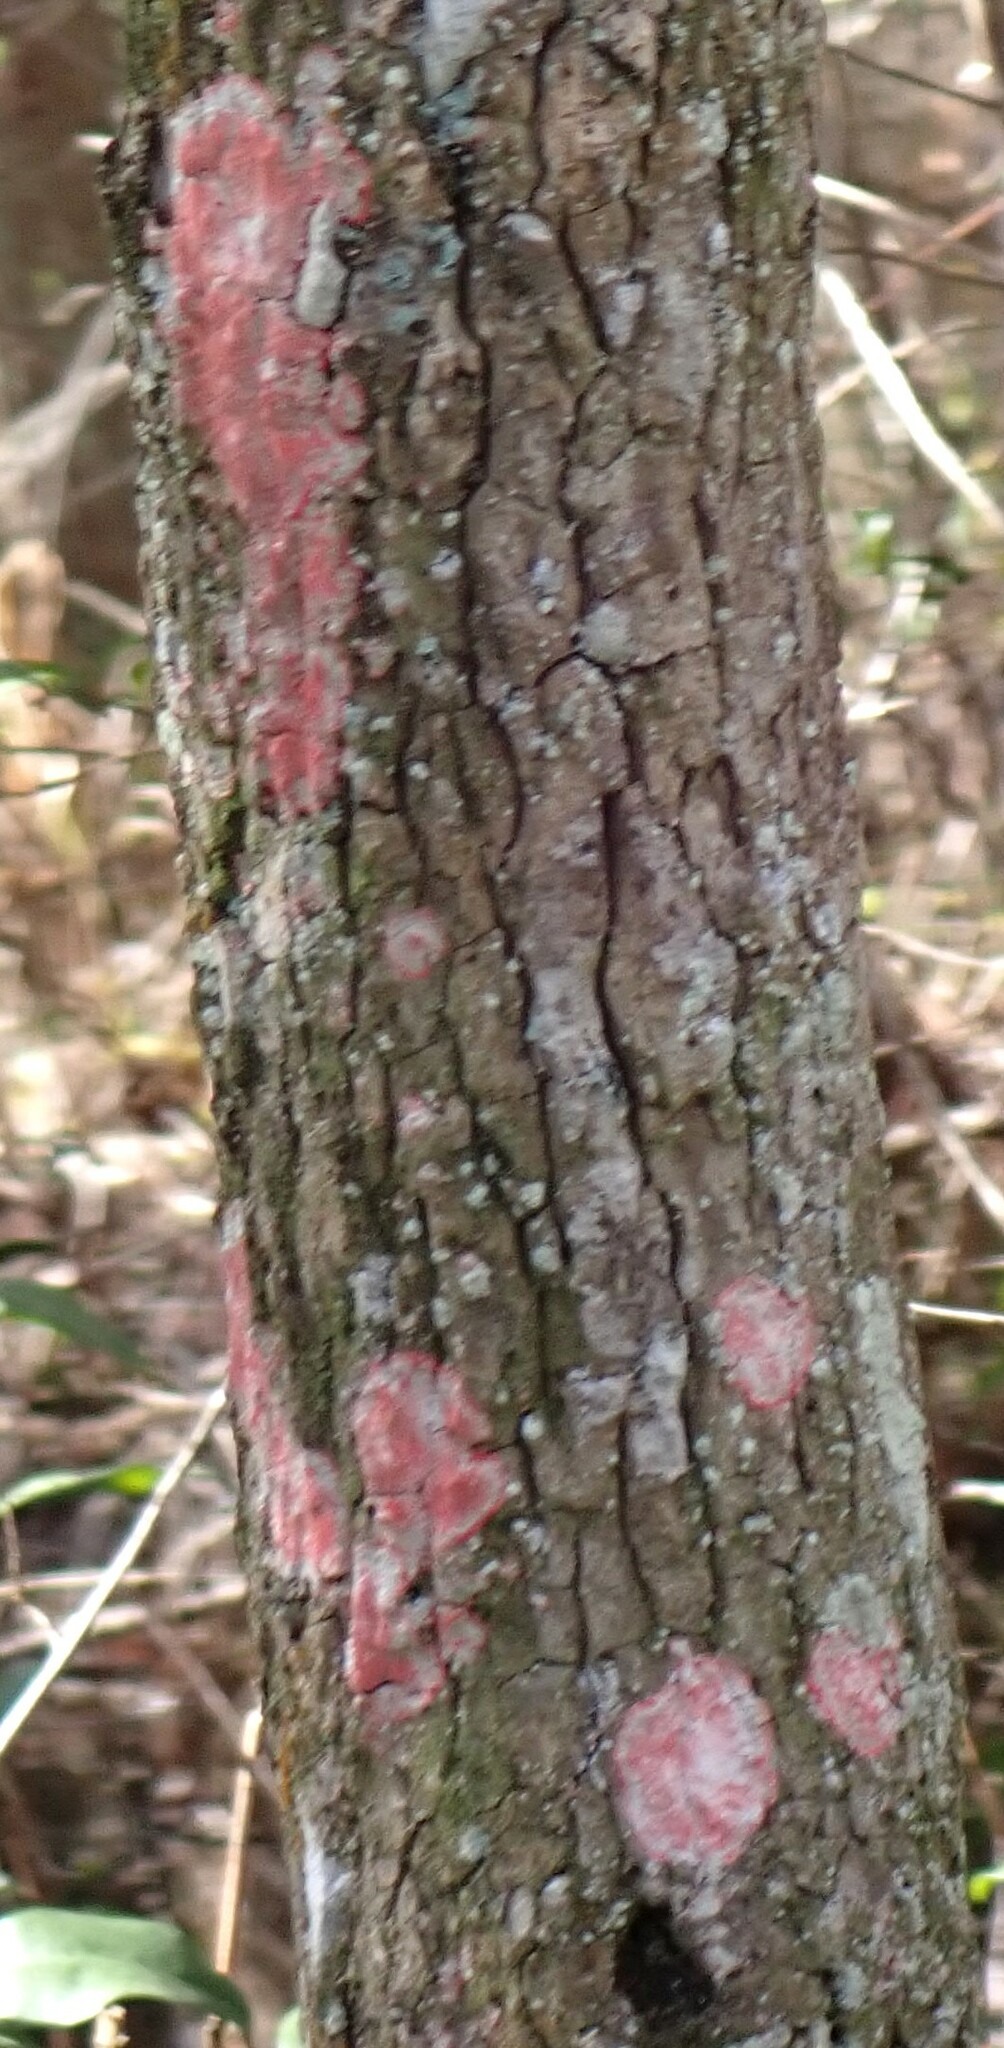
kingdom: Fungi
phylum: Ascomycota
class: Arthoniomycetes
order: Arthoniales
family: Arthoniaceae
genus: Herpothallon
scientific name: Herpothallon rubrocinctum
